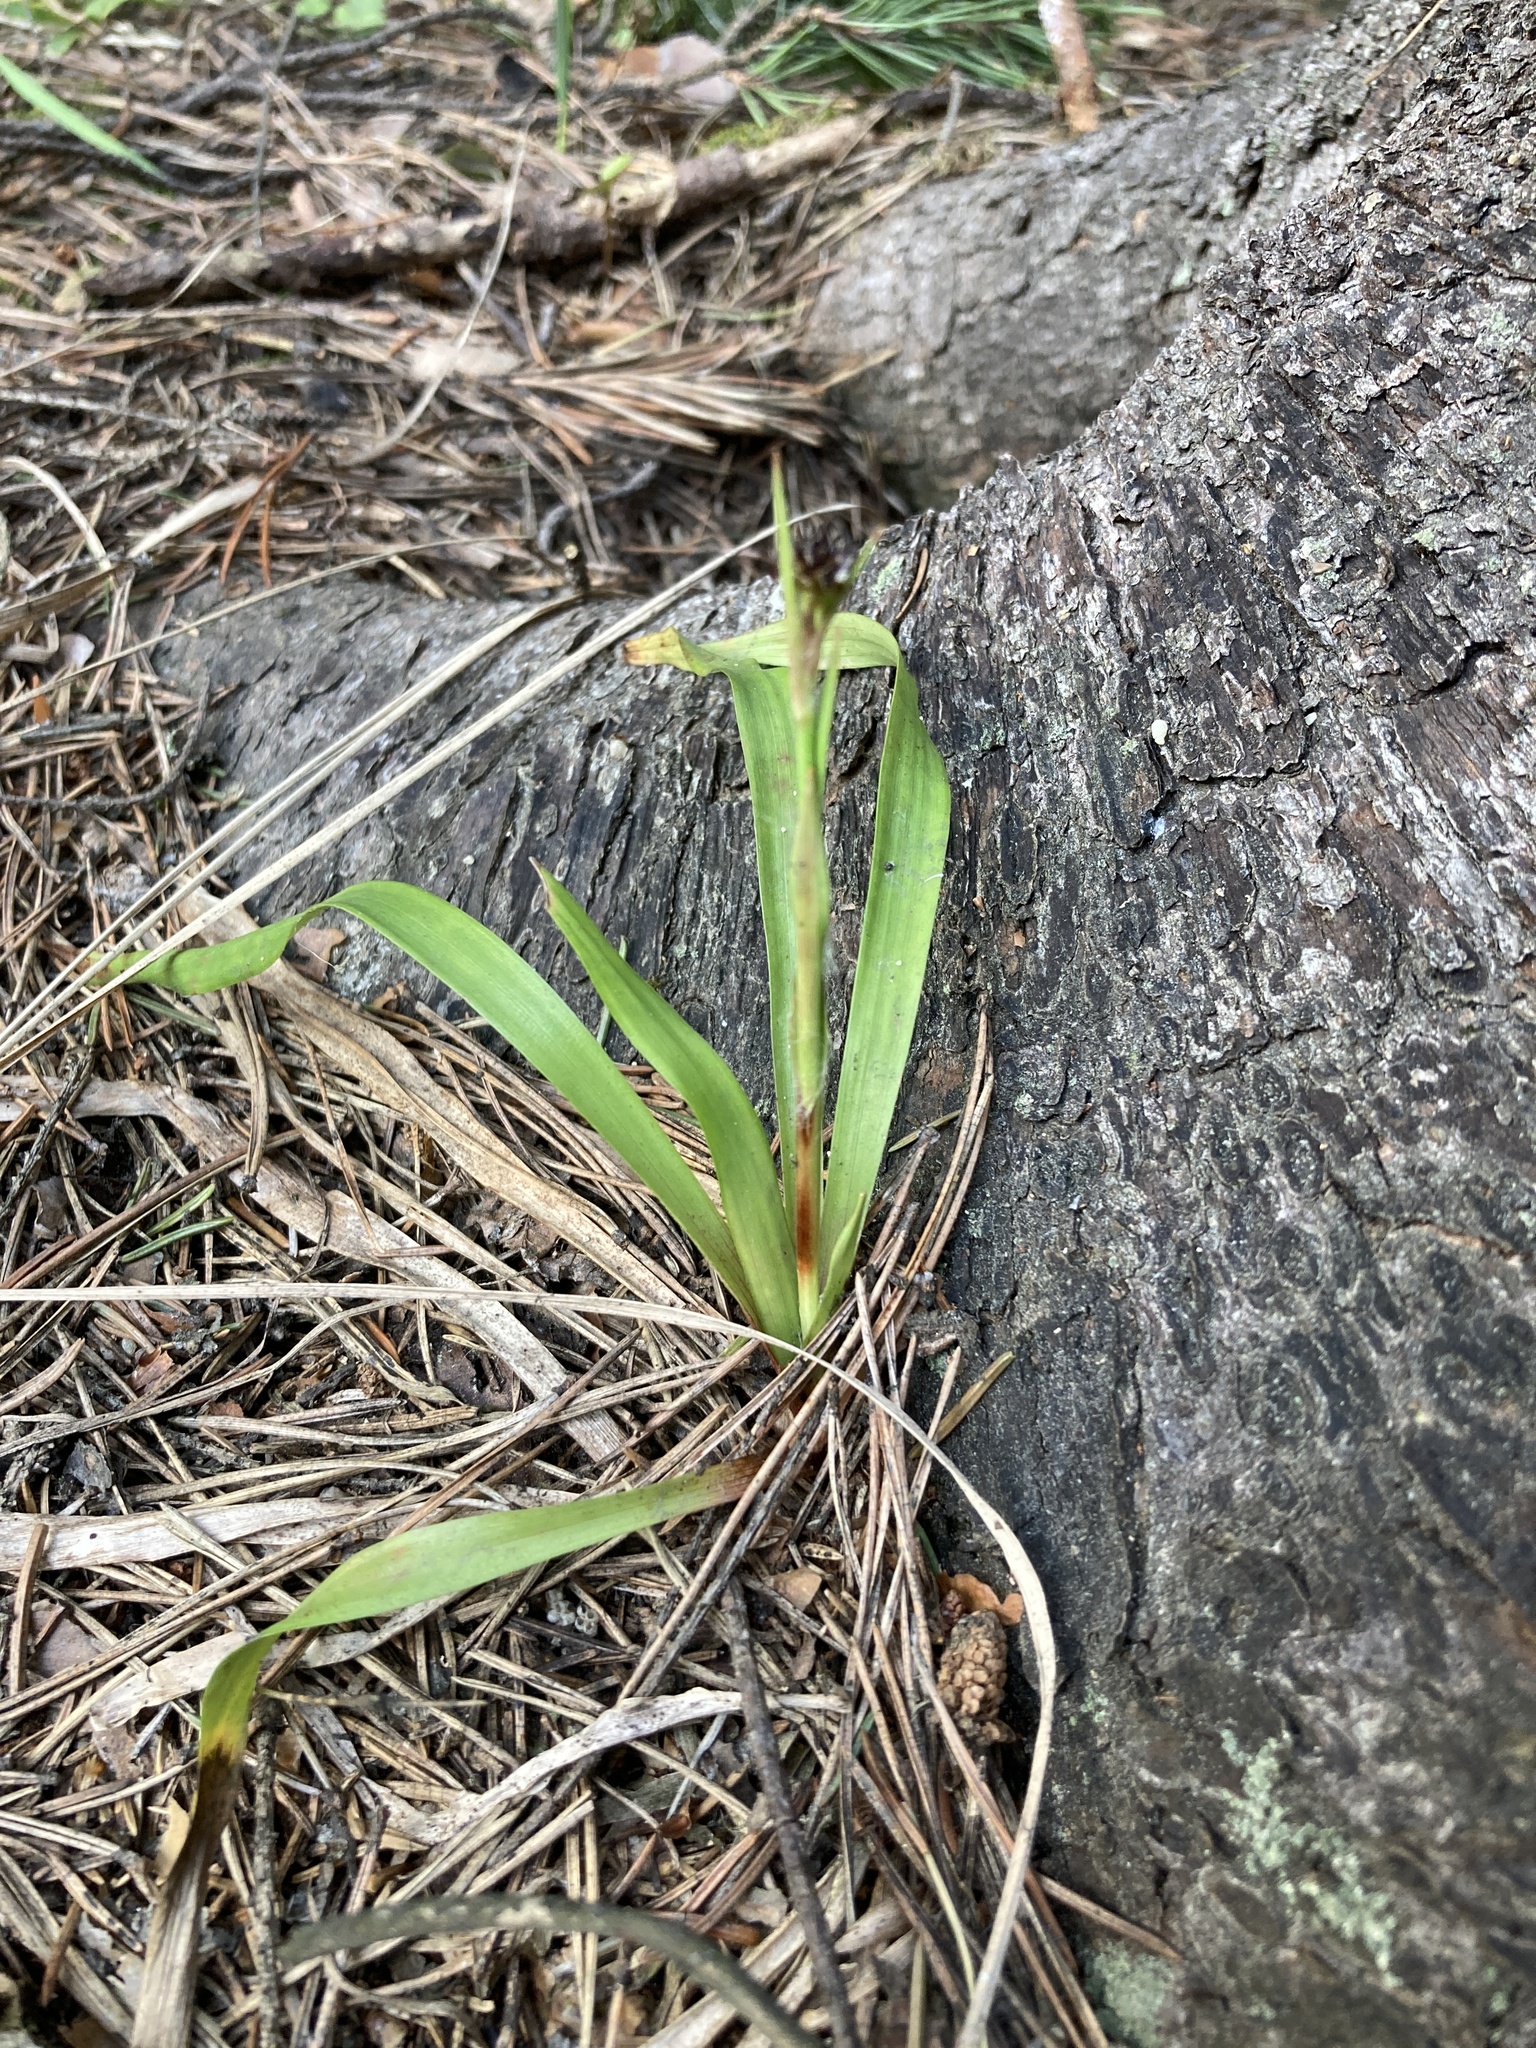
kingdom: Plantae
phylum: Tracheophyta
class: Liliopsida
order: Poales
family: Juncaceae
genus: Luzula
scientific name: Luzula pilosa
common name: Hairy wood-rush
